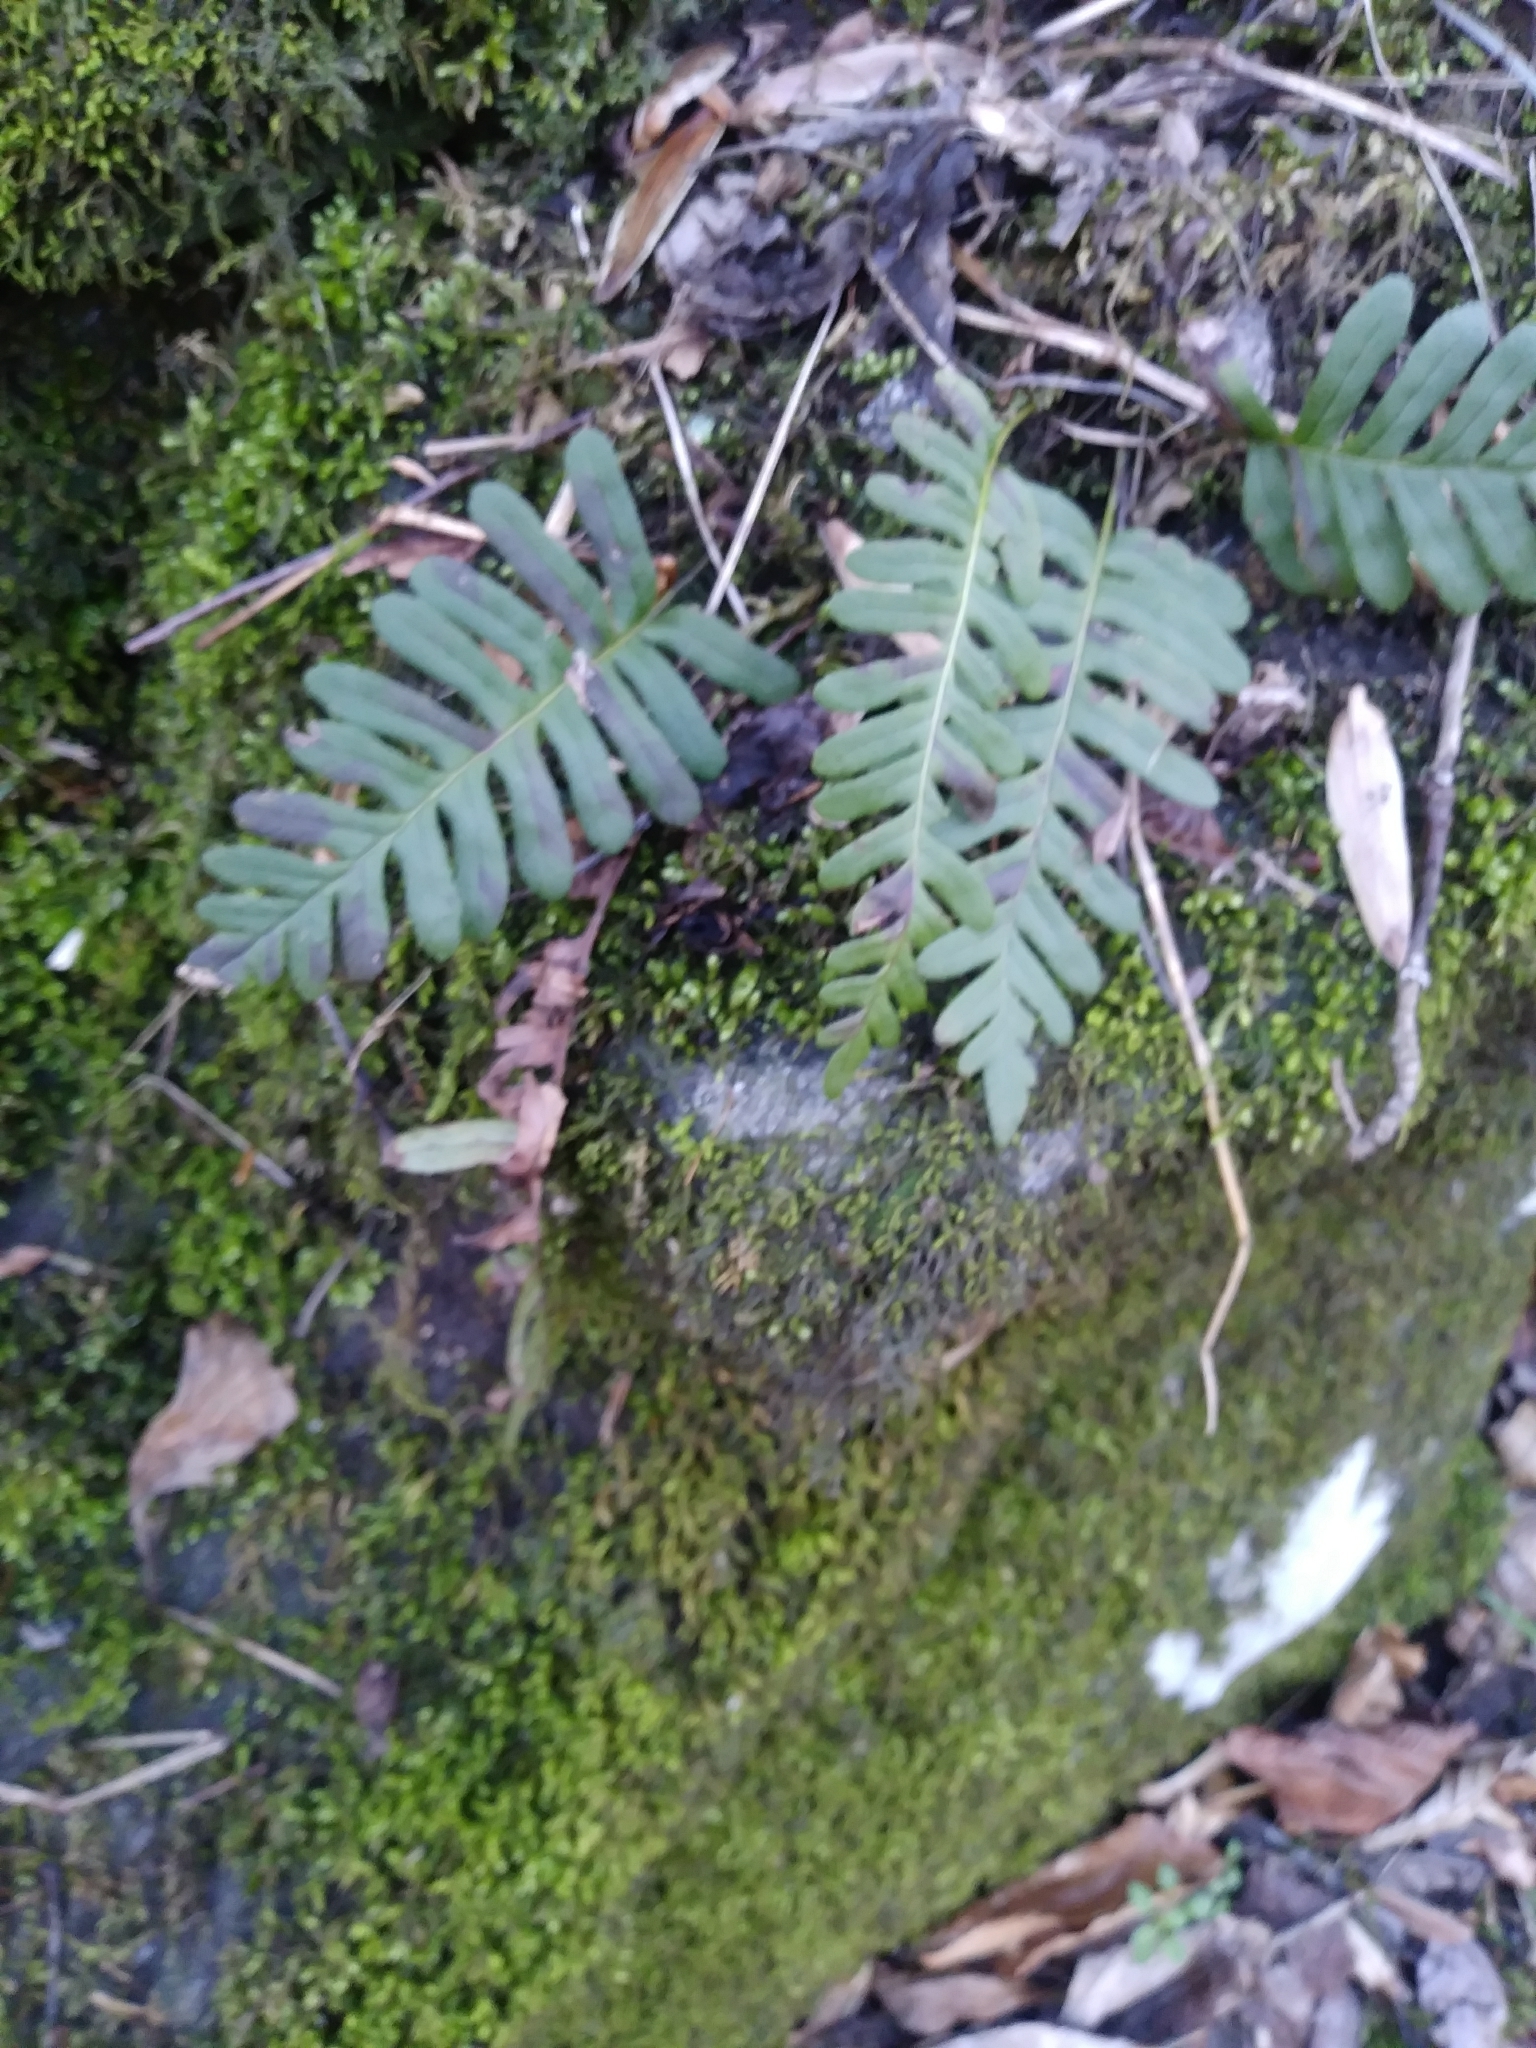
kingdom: Plantae
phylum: Tracheophyta
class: Polypodiopsida
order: Polypodiales
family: Polypodiaceae
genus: Polypodium
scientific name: Polypodium virginianum
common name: American wall fern
